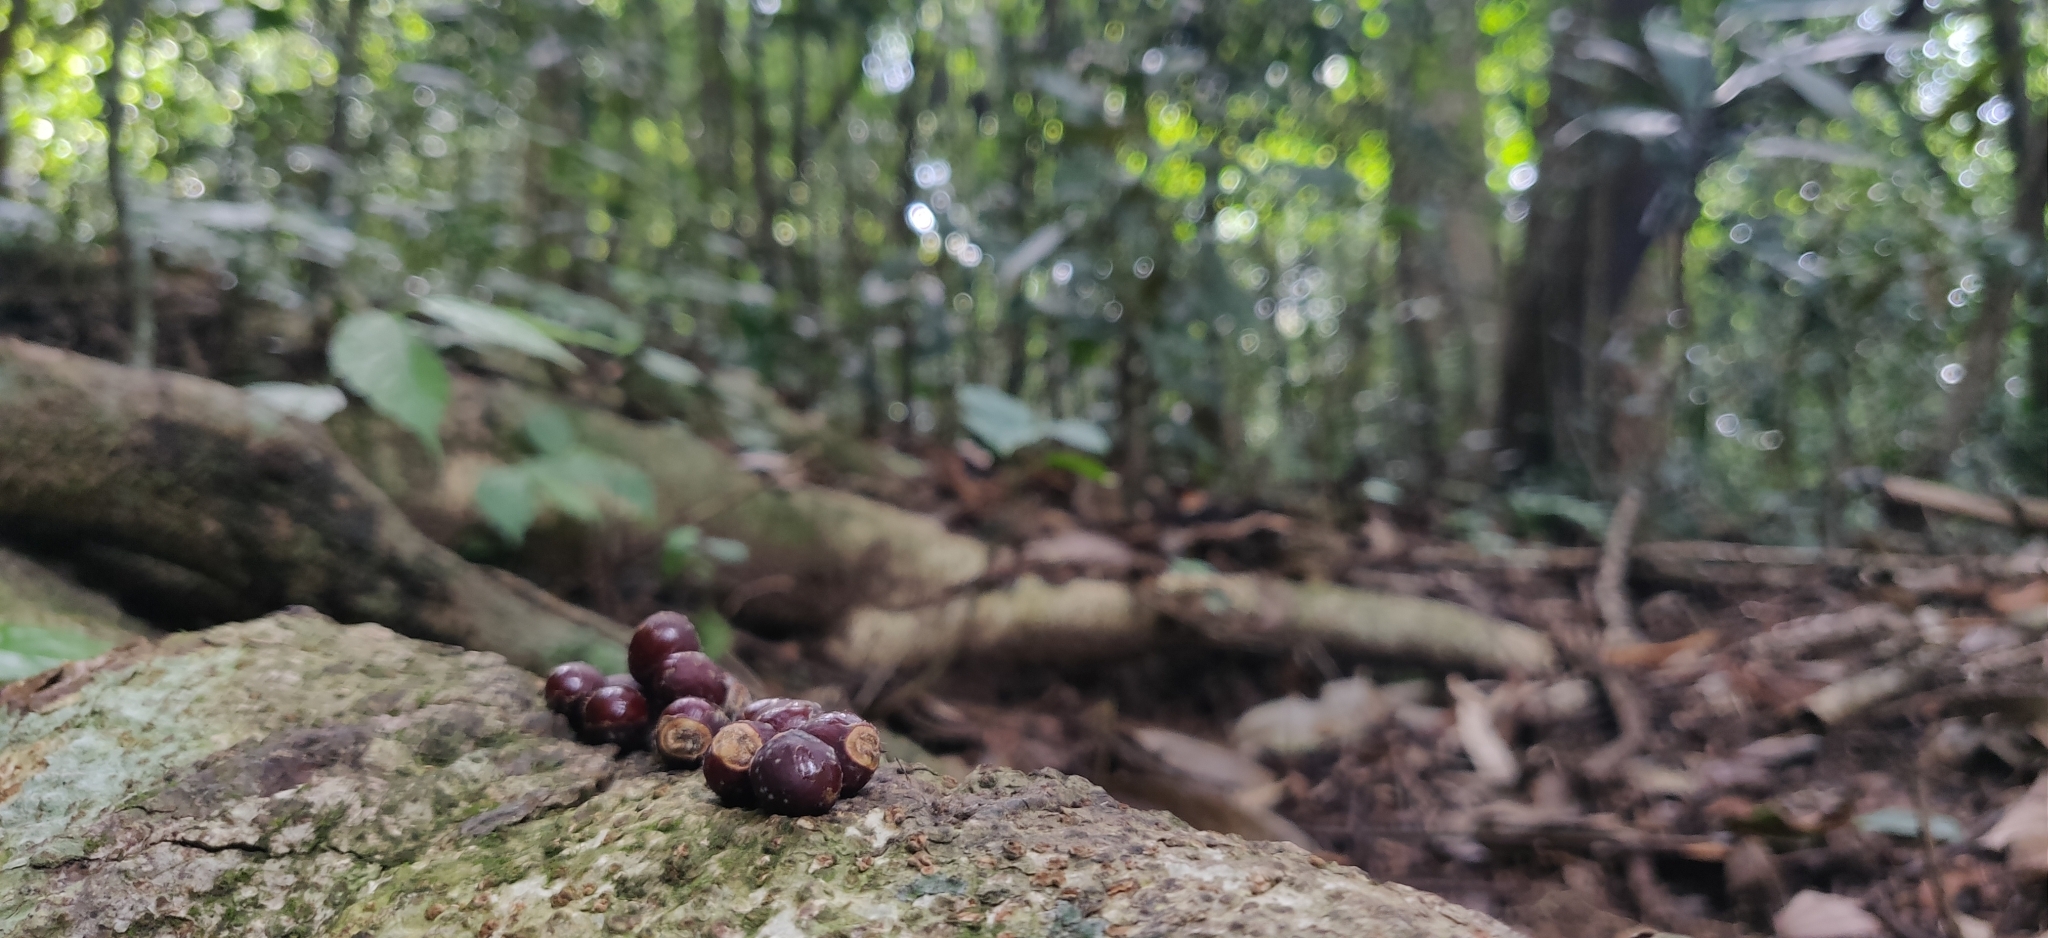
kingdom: Plantae
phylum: Tracheophyta
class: Magnoliopsida
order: Sapindales
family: Sapindaceae
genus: Dimocarpus
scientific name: Dimocarpus longan
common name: Longan
